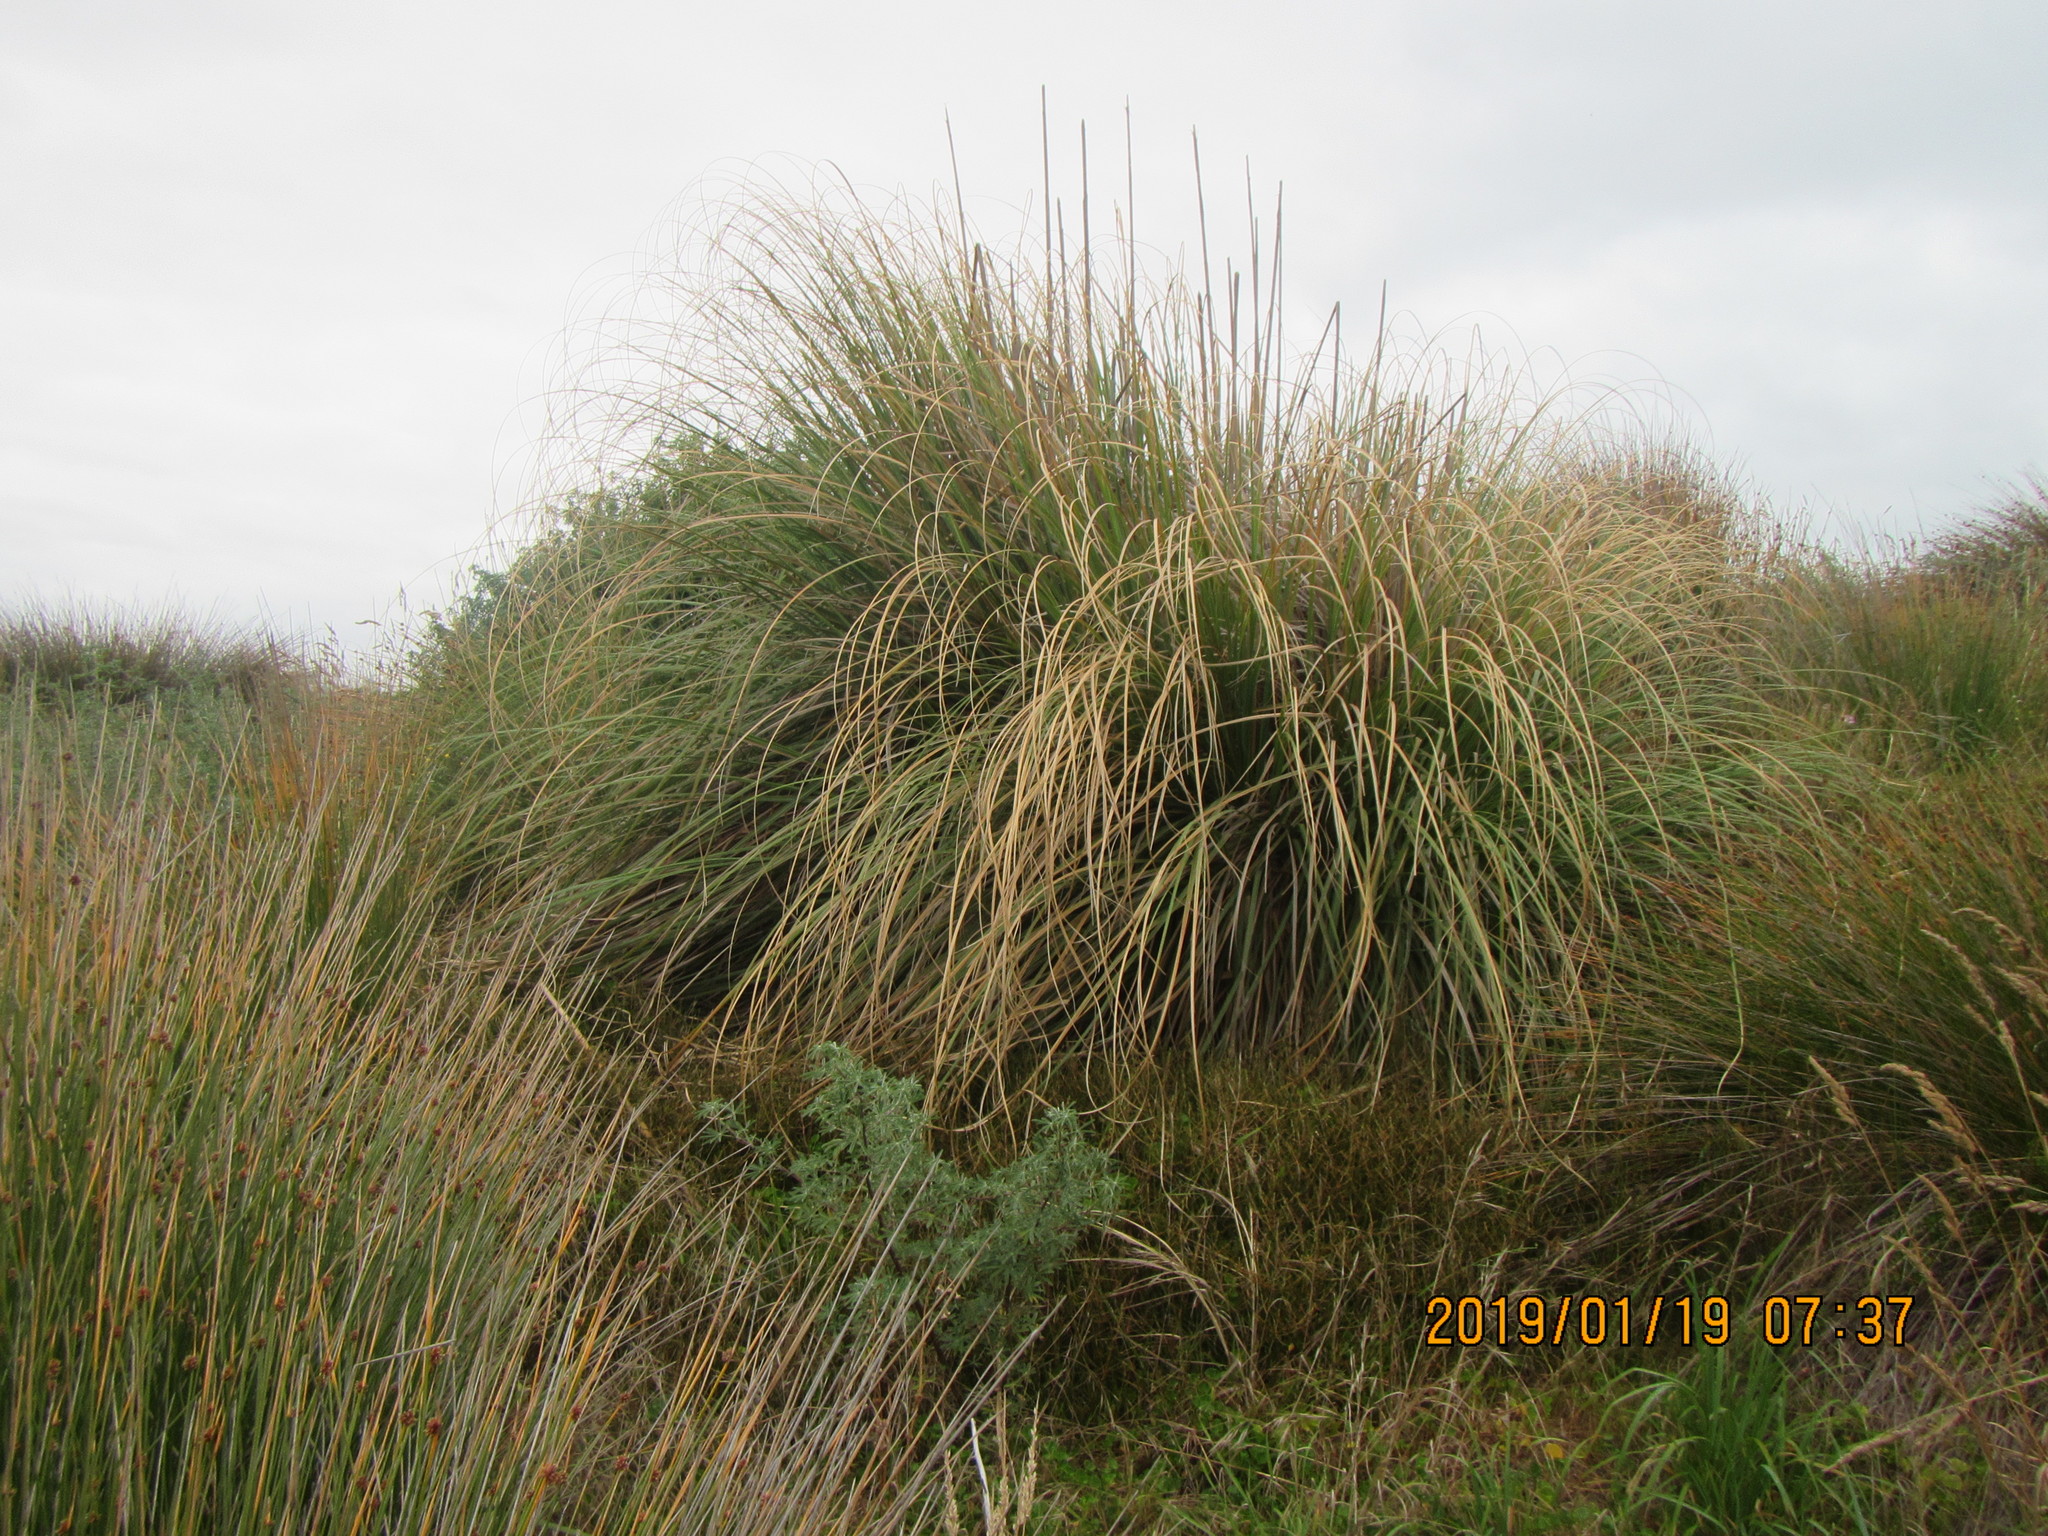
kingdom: Plantae
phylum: Tracheophyta
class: Liliopsida
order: Poales
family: Poaceae
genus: Cortaderia
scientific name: Cortaderia selloana
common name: Uruguayan pampas grass
